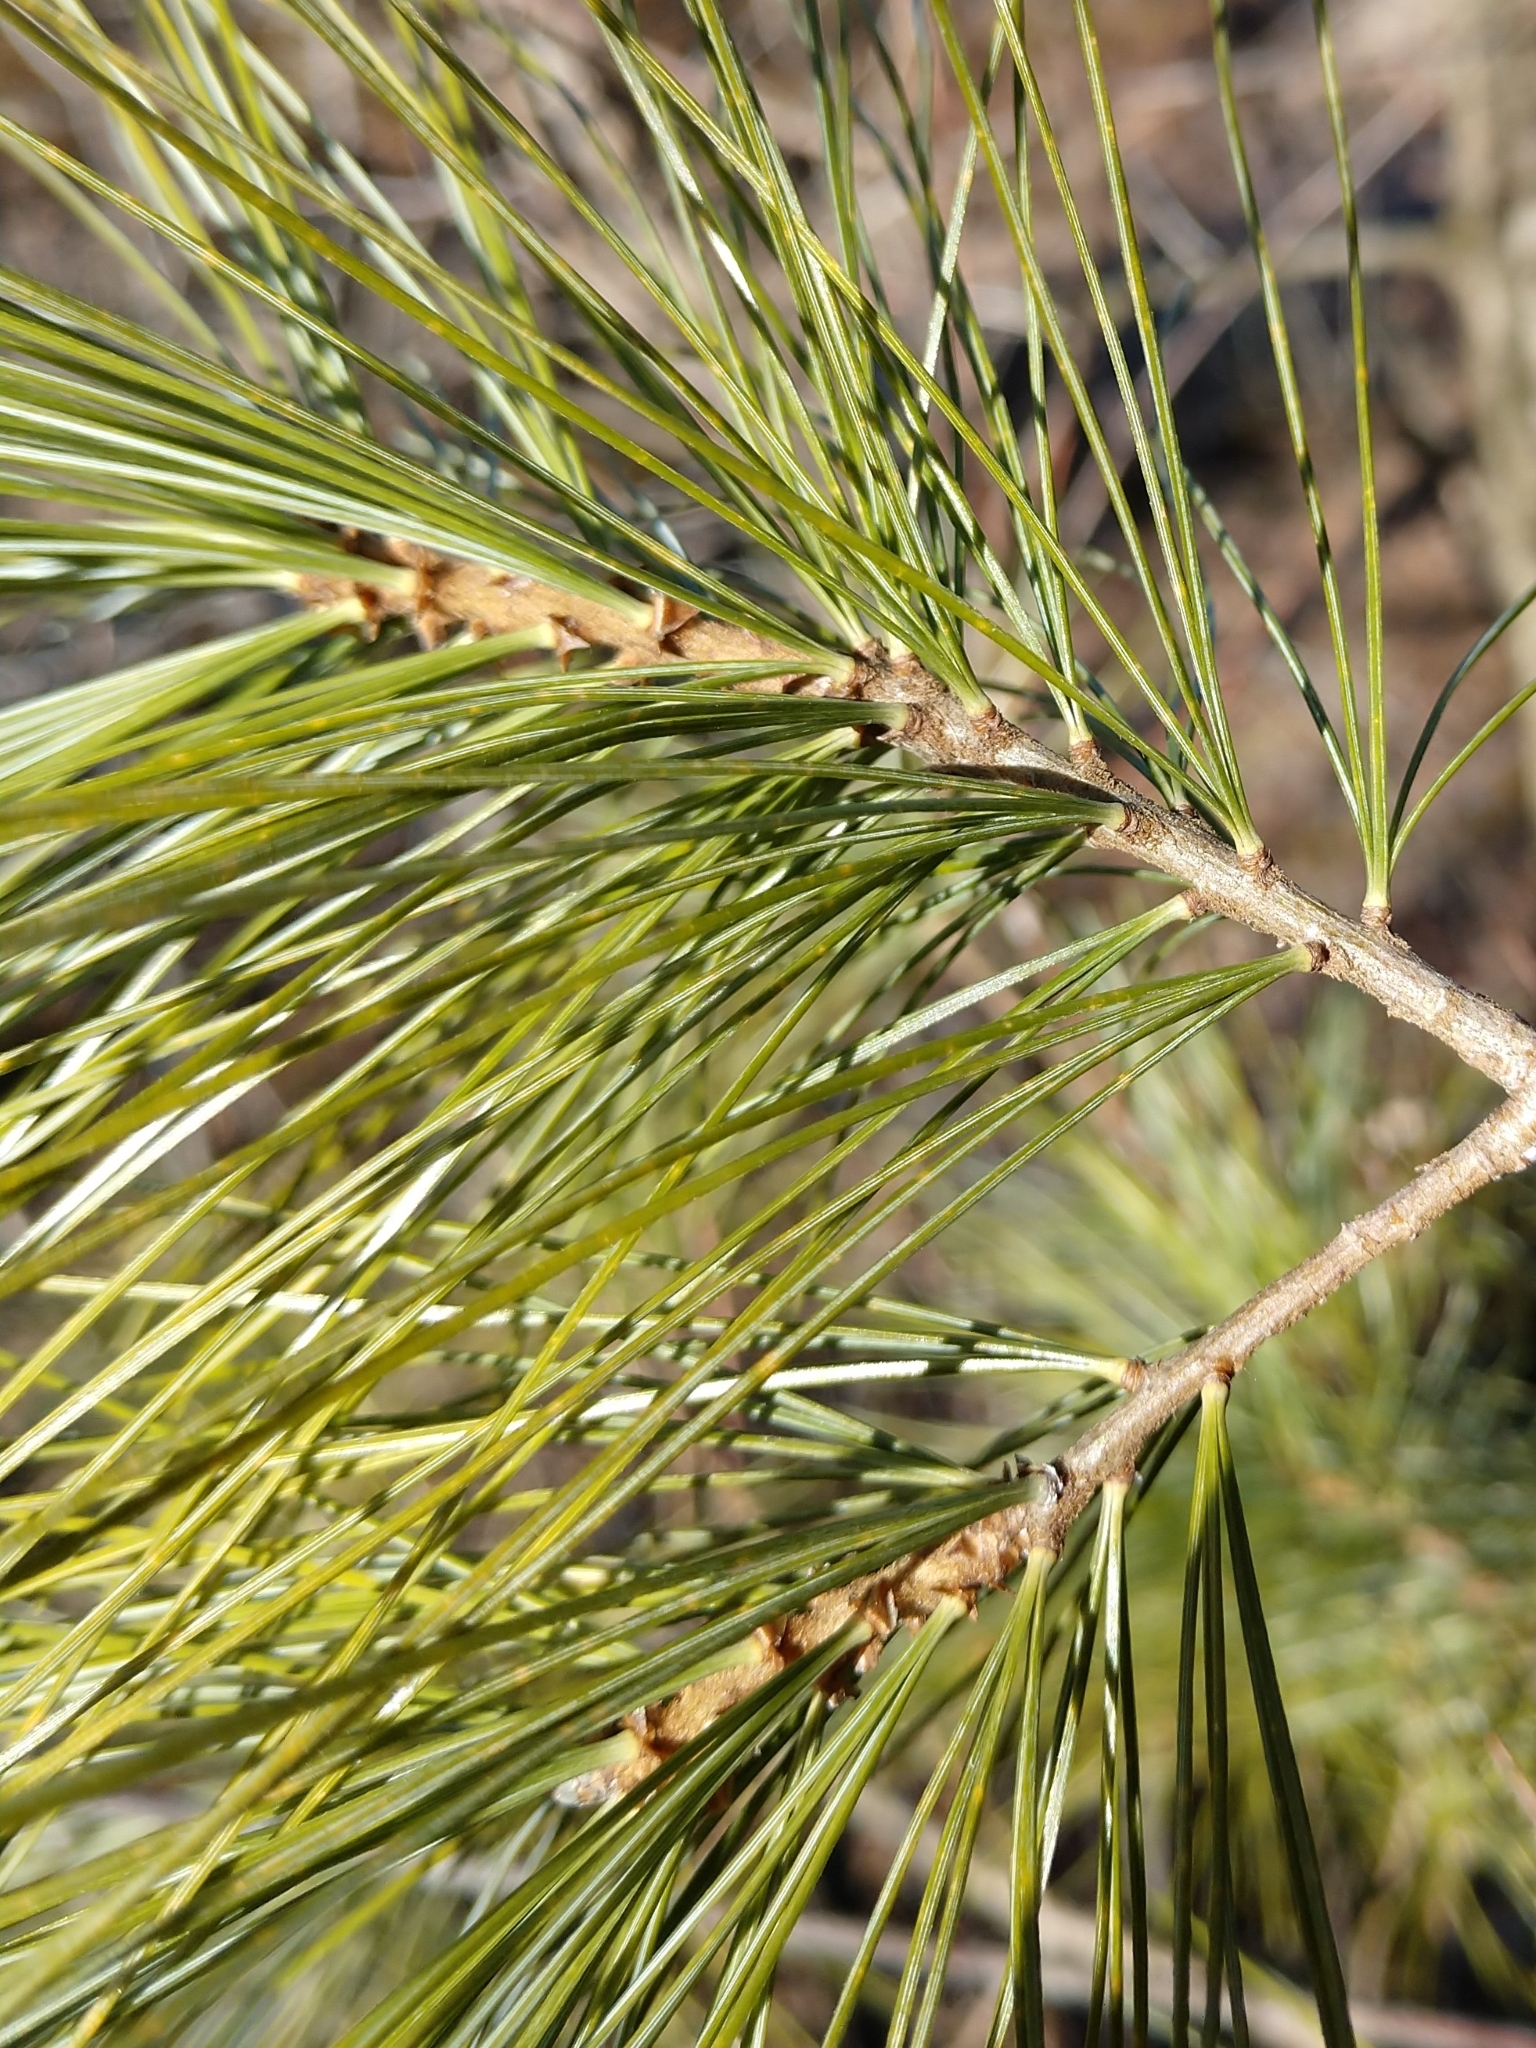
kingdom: Plantae
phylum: Tracheophyta
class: Pinopsida
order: Pinales
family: Pinaceae
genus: Pinus
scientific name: Pinus strobus
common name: Weymouth pine
